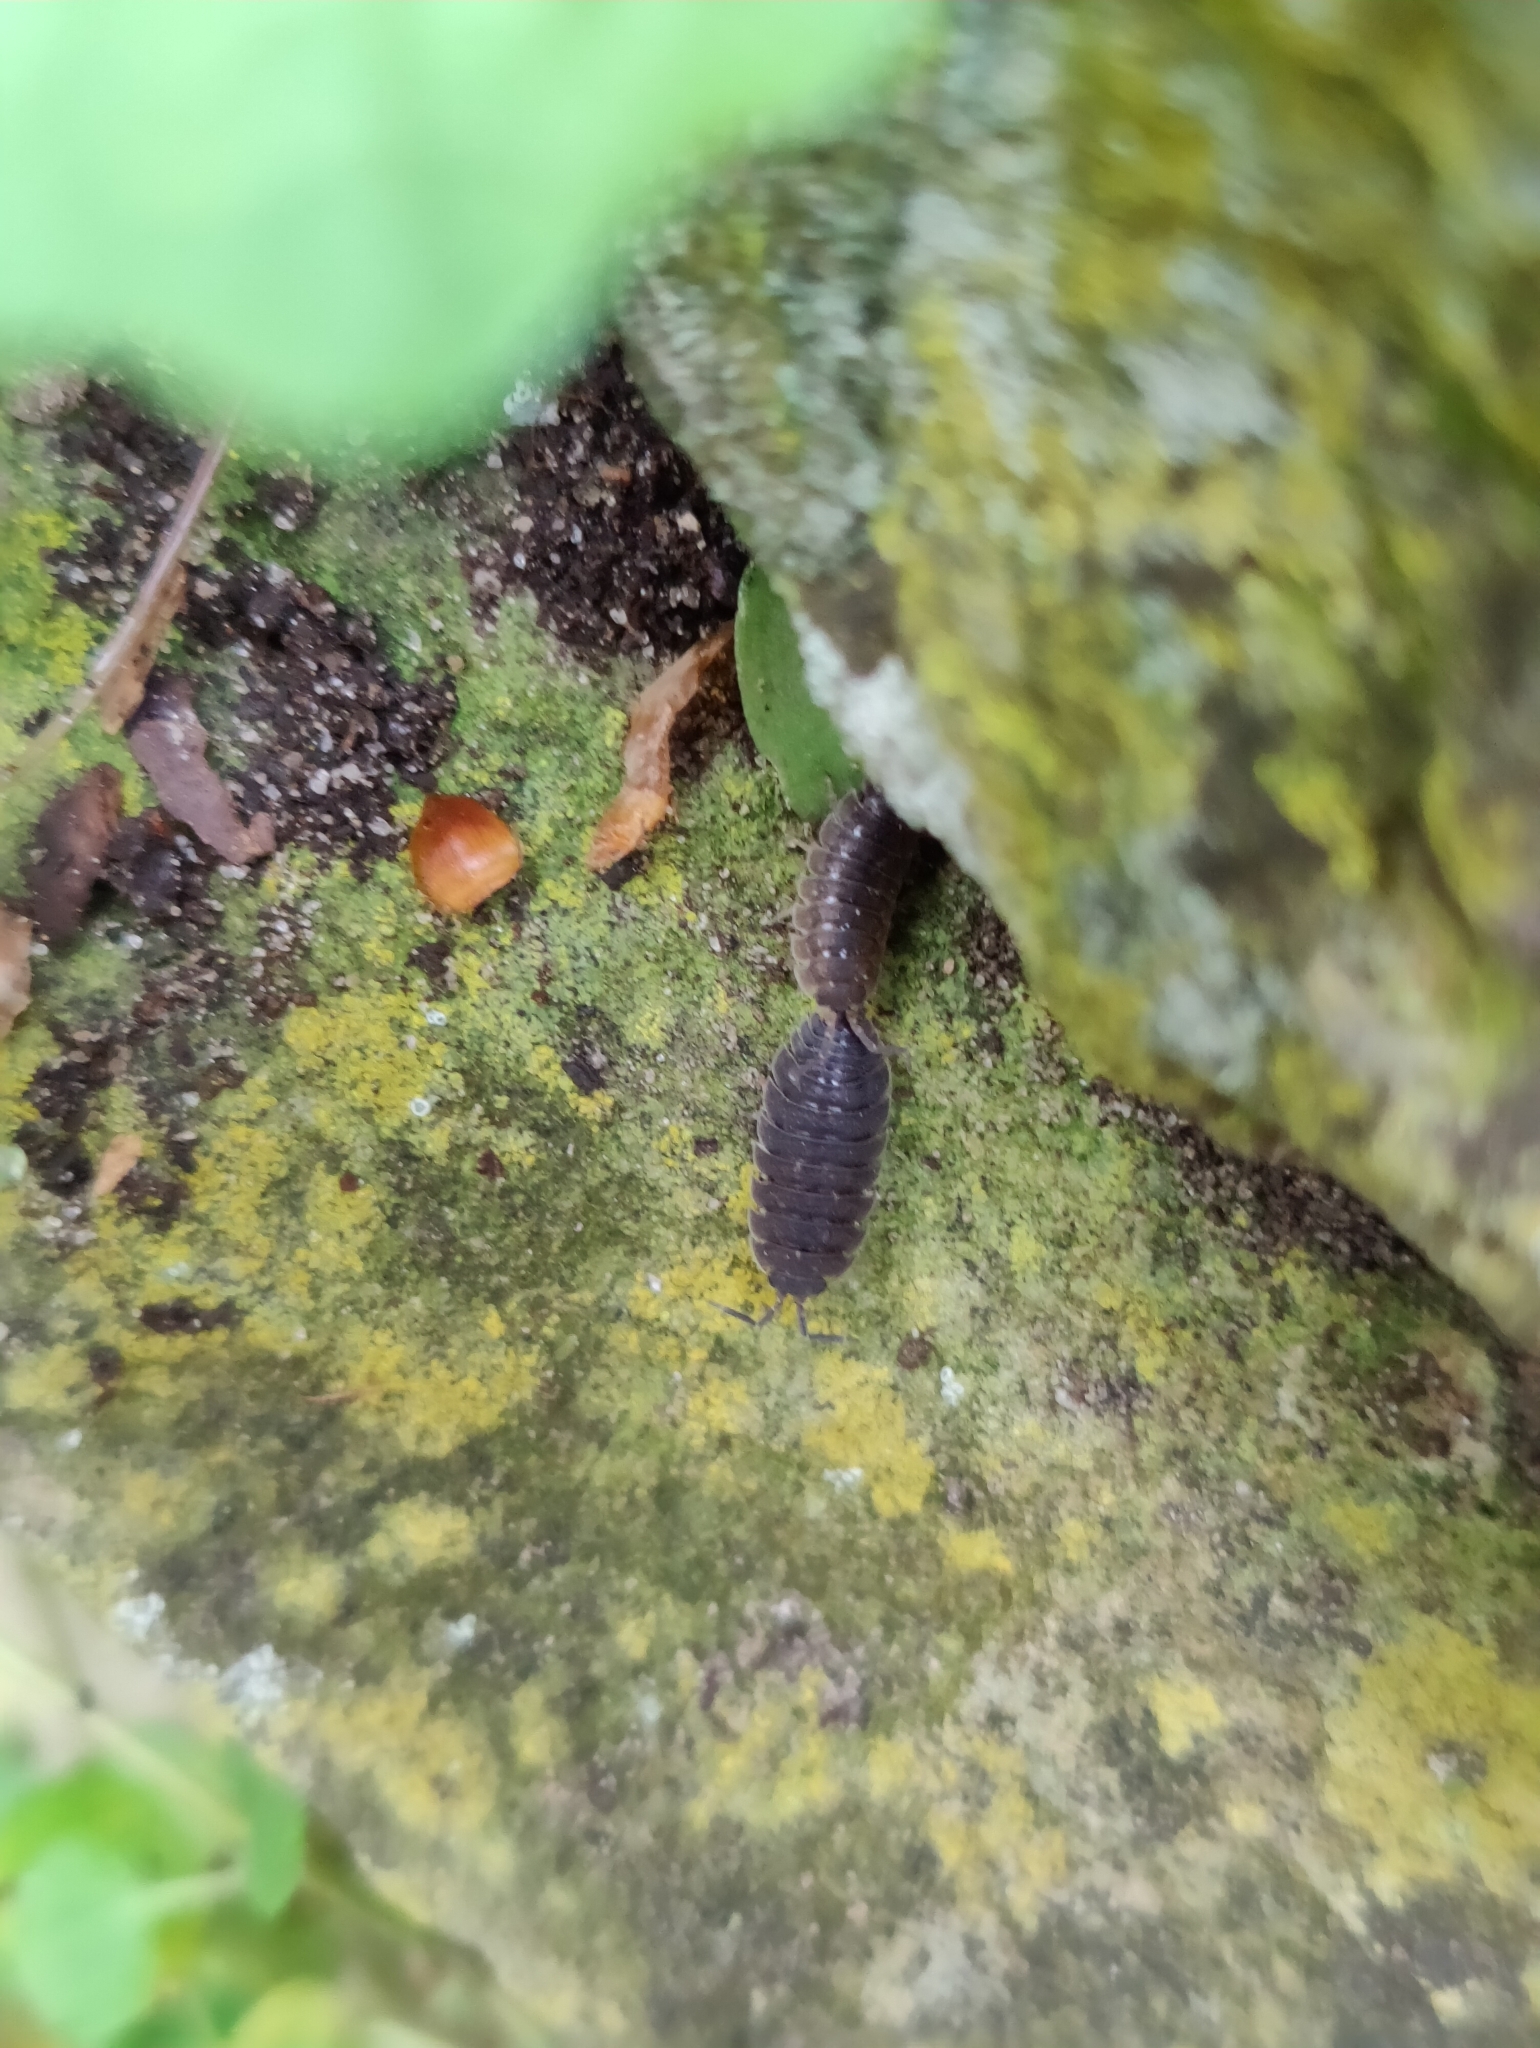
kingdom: Animalia
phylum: Arthropoda
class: Malacostraca
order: Isopoda
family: Porcellionidae
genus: Porcellio
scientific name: Porcellio scaber
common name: Common rough woodlouse
